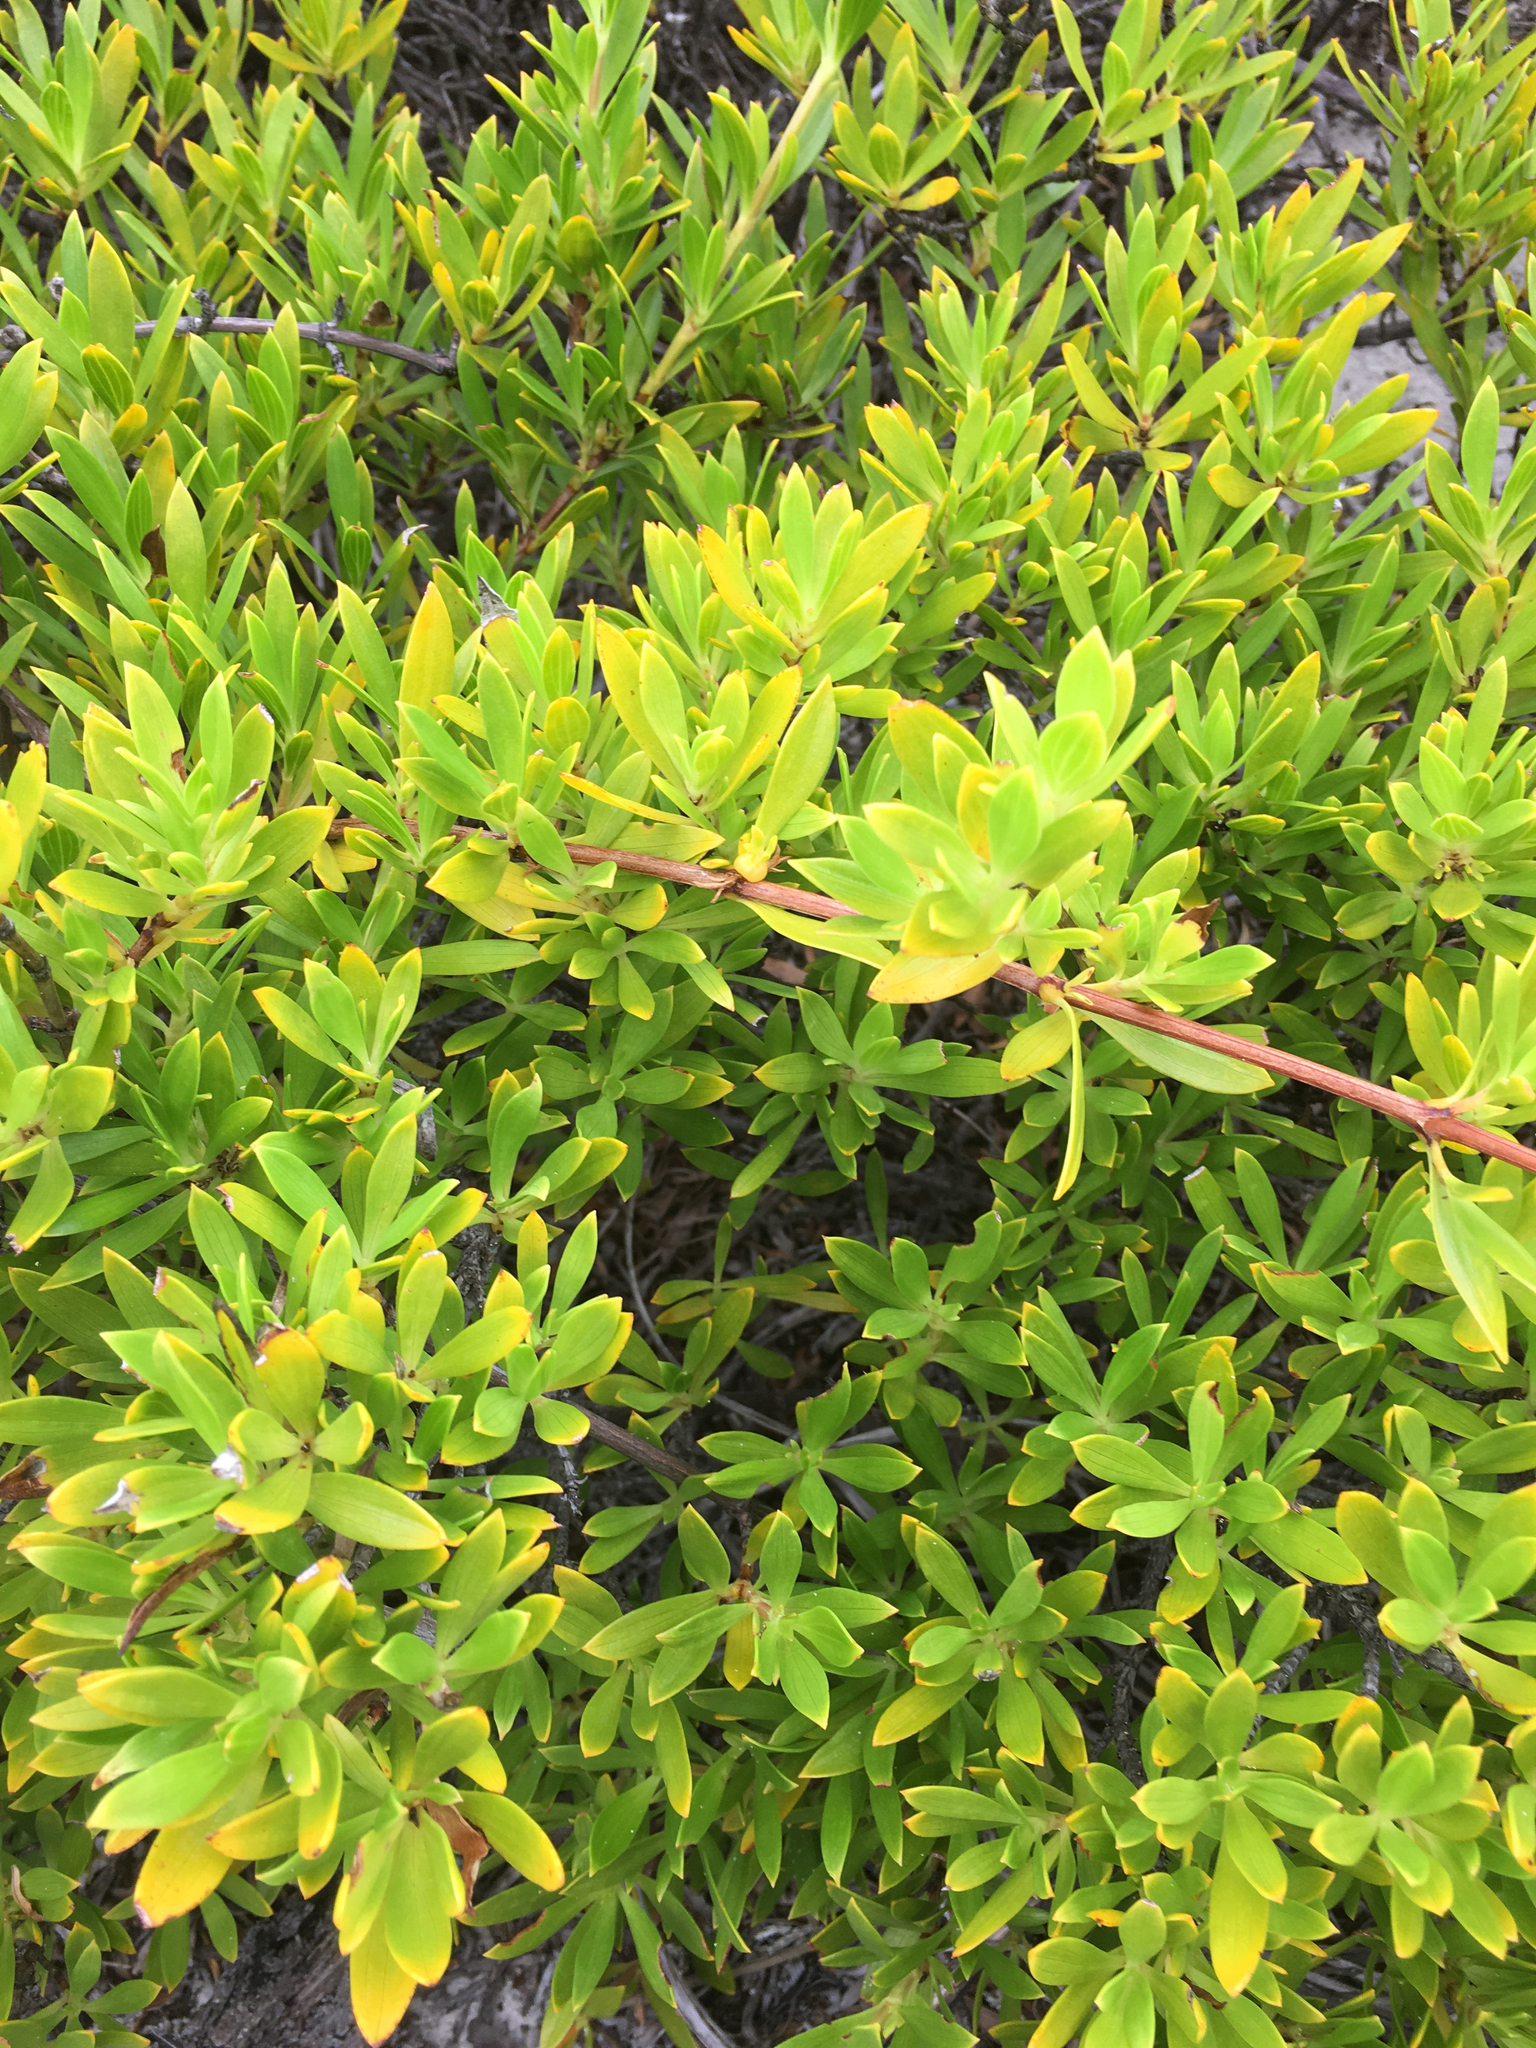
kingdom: Plantae
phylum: Tracheophyta
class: Magnoliopsida
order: Gentianales
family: Rubiaceae
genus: Ernodea
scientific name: Ernodea littoralis
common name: Beach creeper
